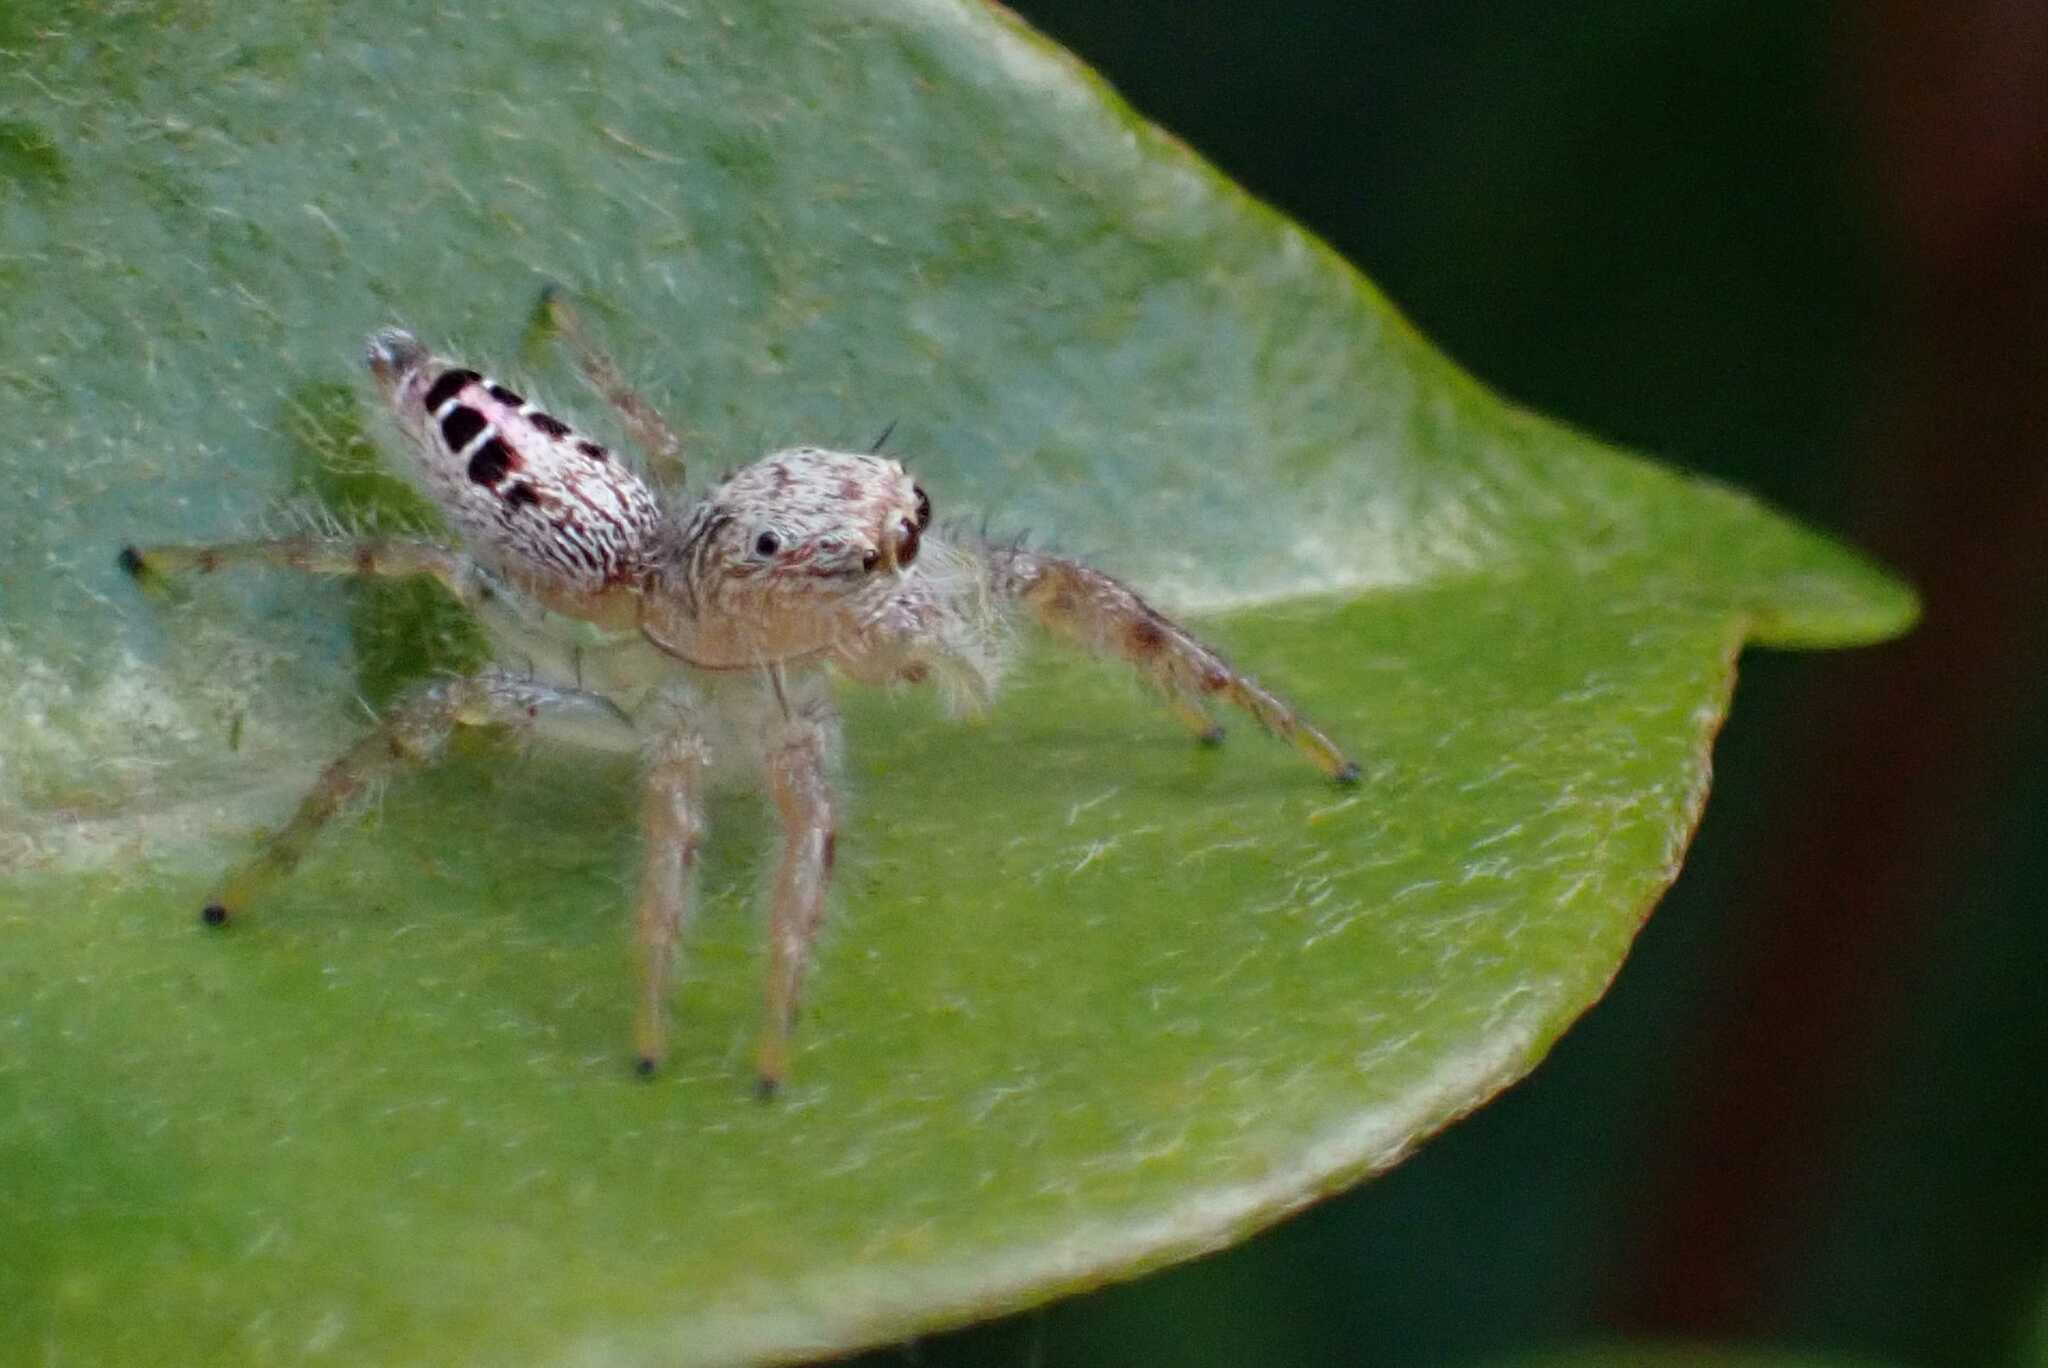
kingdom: Animalia
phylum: Arthropoda
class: Arachnida
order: Araneae
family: Salticidae
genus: Thyene
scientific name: Thyene coccineovittata
